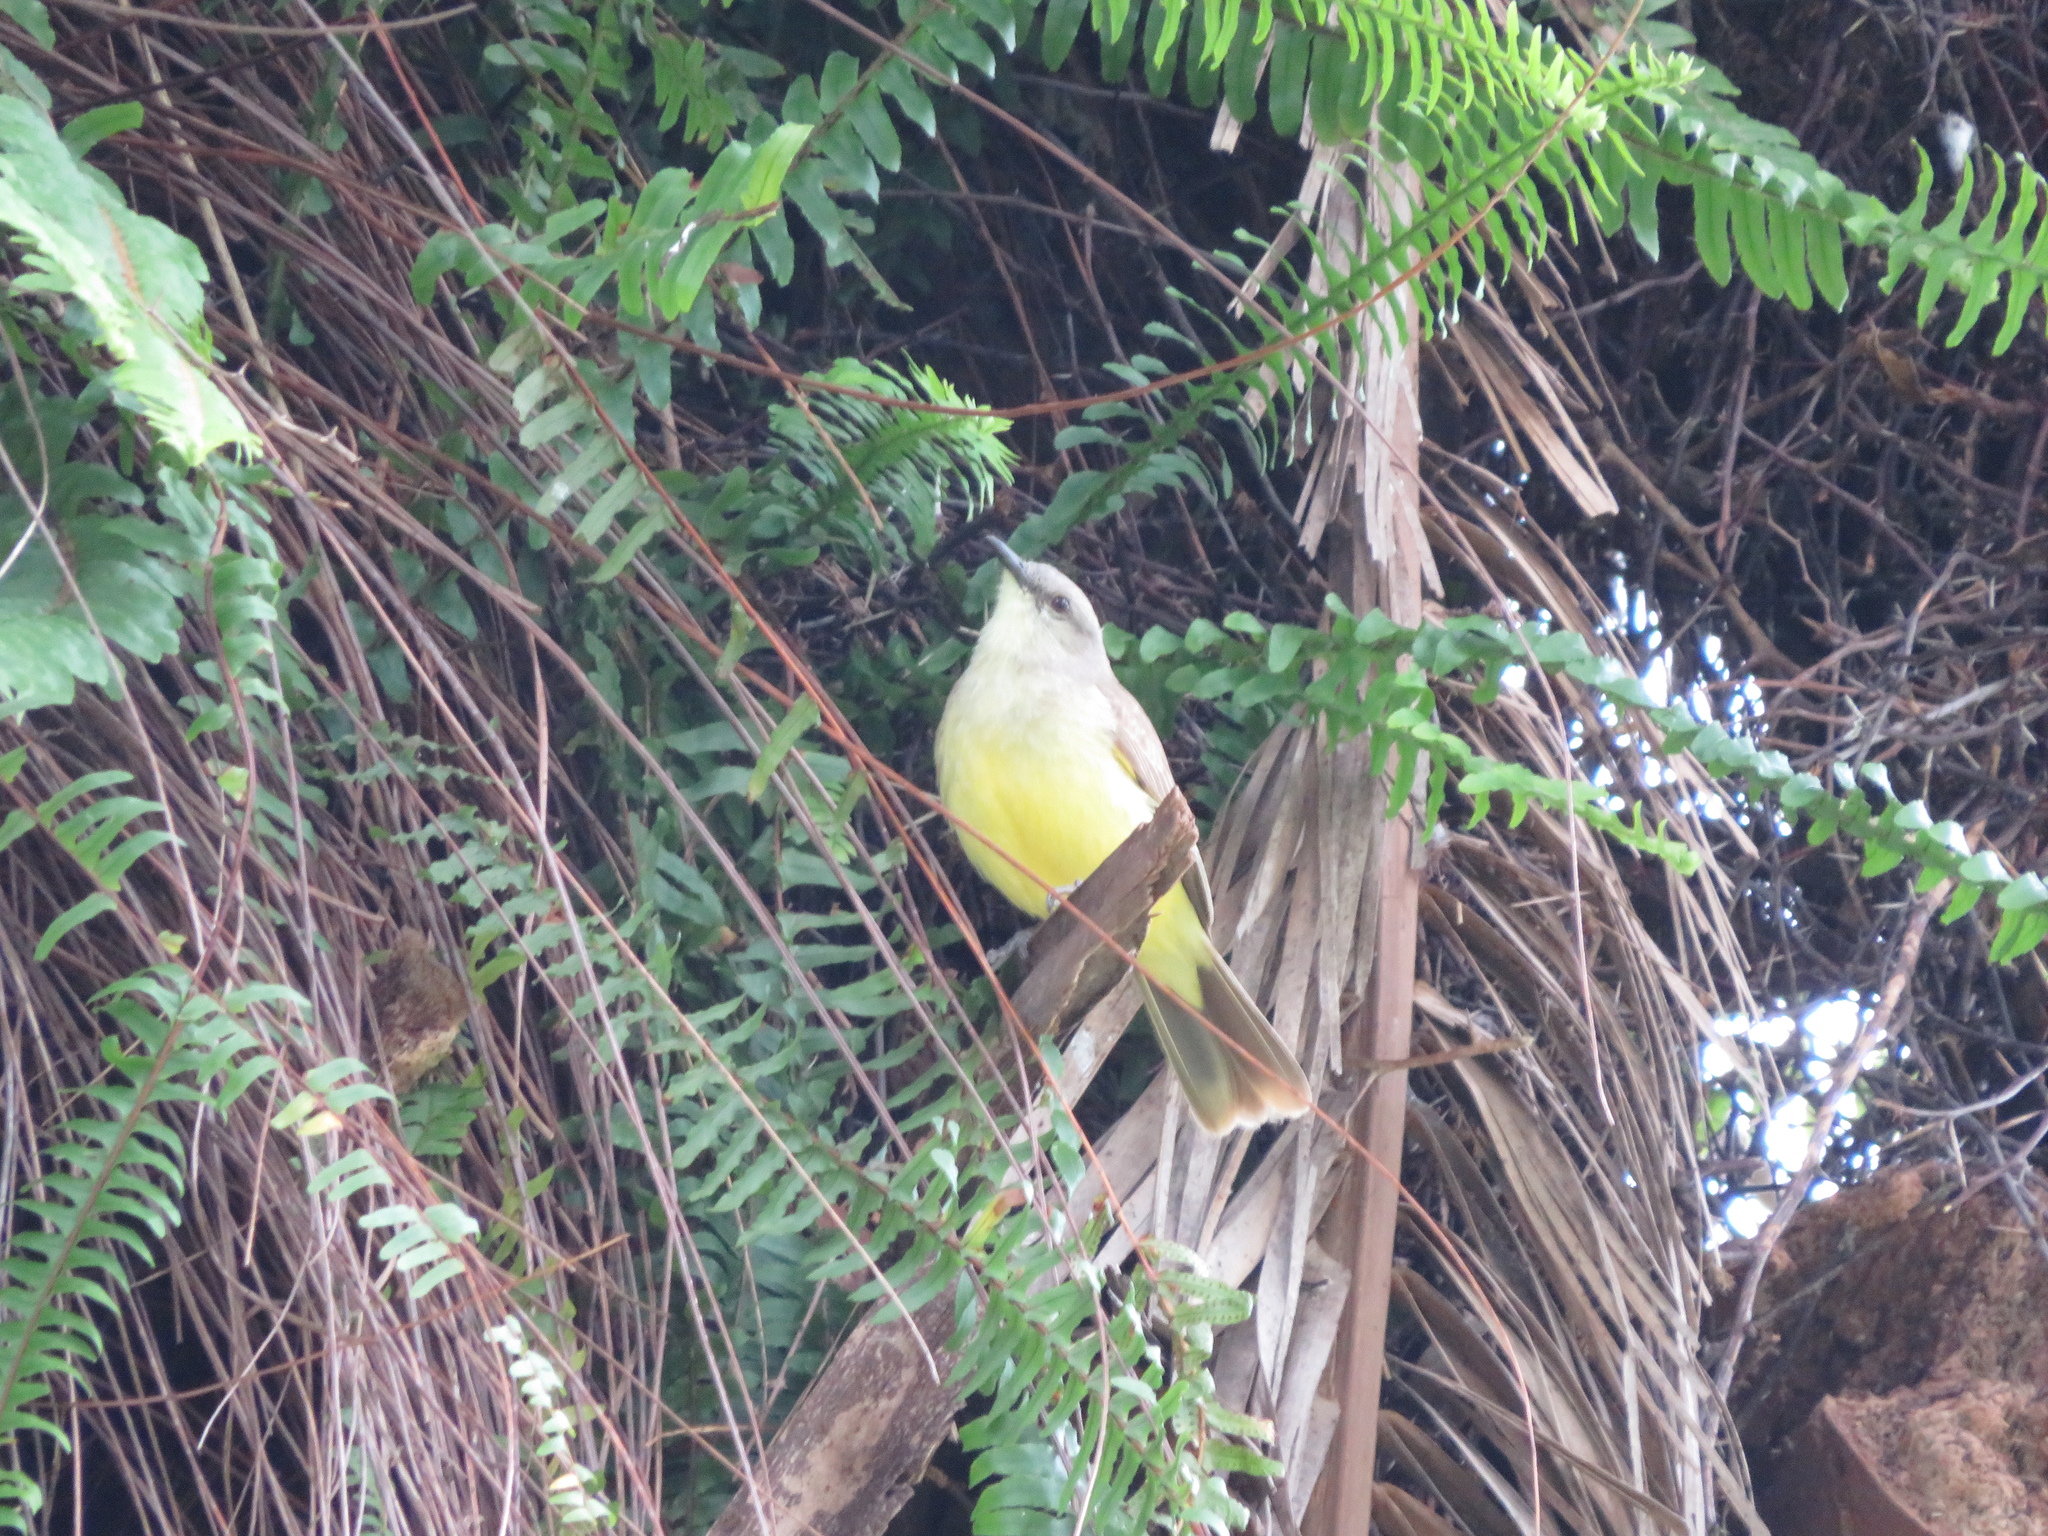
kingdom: Animalia
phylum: Chordata
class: Aves
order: Passeriformes
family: Tyrannidae
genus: Machetornis
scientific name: Machetornis rixosa
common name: Cattle tyrant
